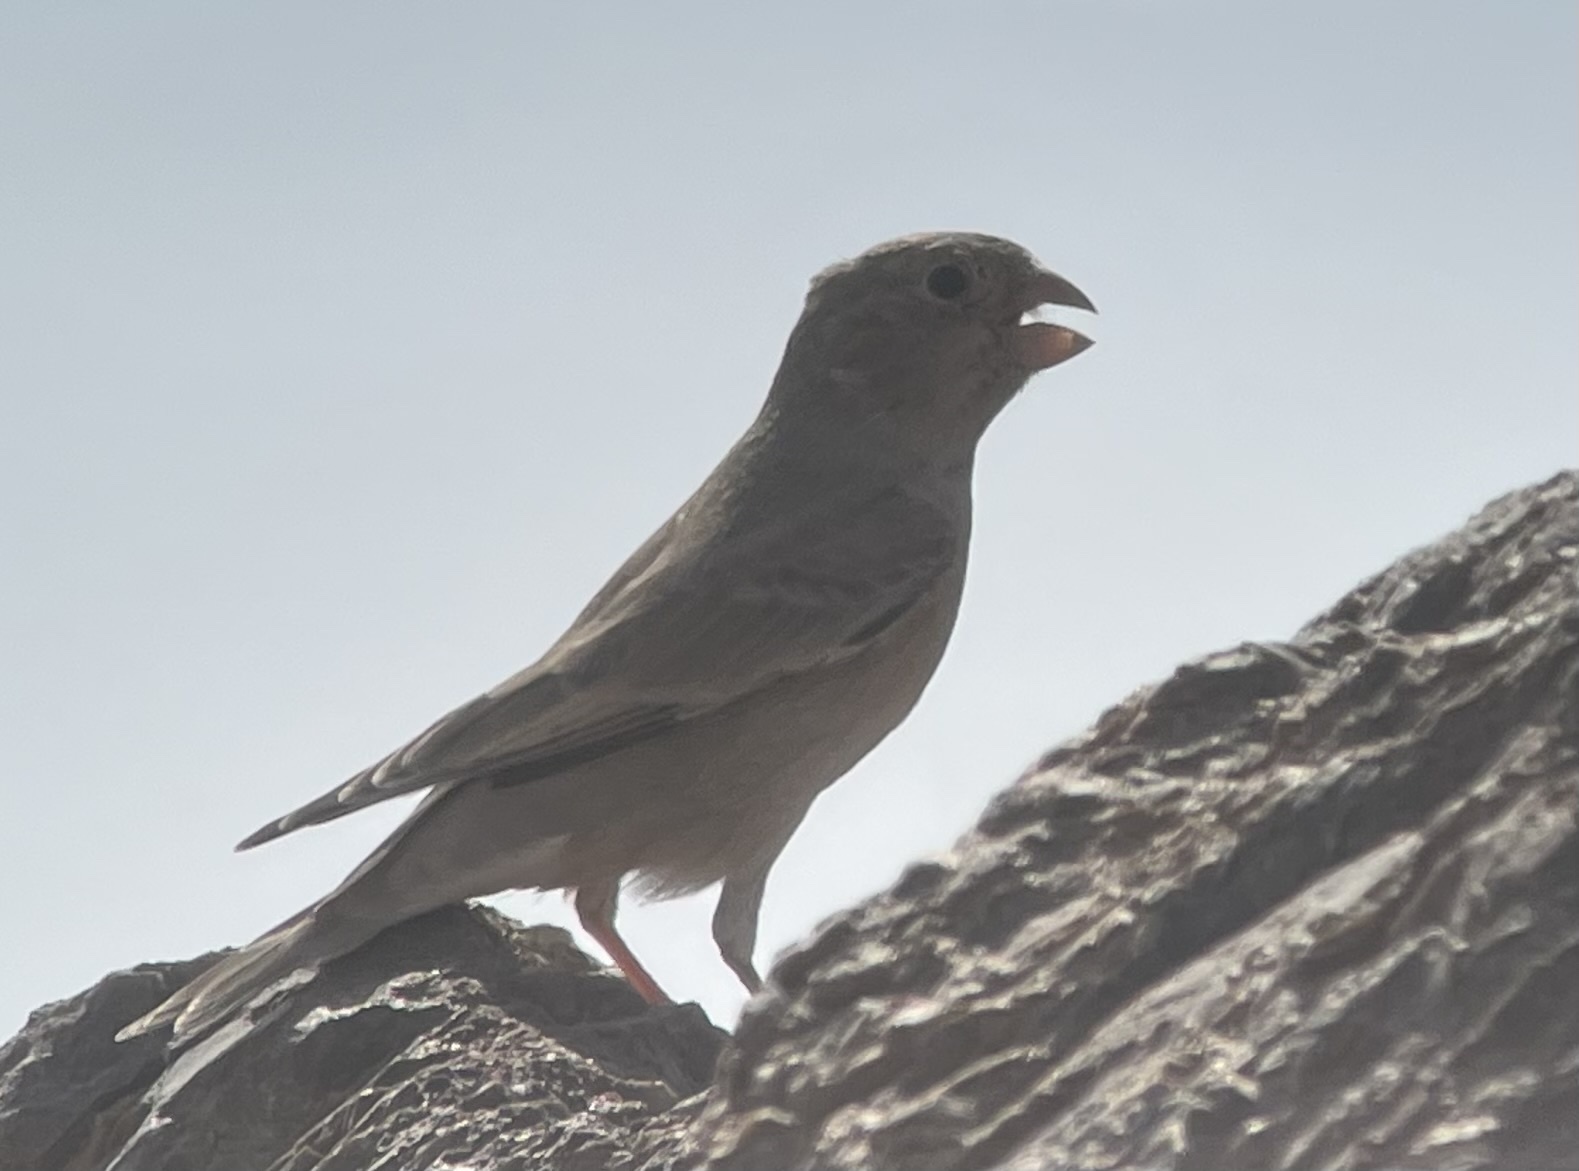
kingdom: Animalia
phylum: Chordata
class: Aves
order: Passeriformes
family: Fringillidae
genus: Bucanetes
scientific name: Bucanetes githagineus
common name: Trumpeter finch
